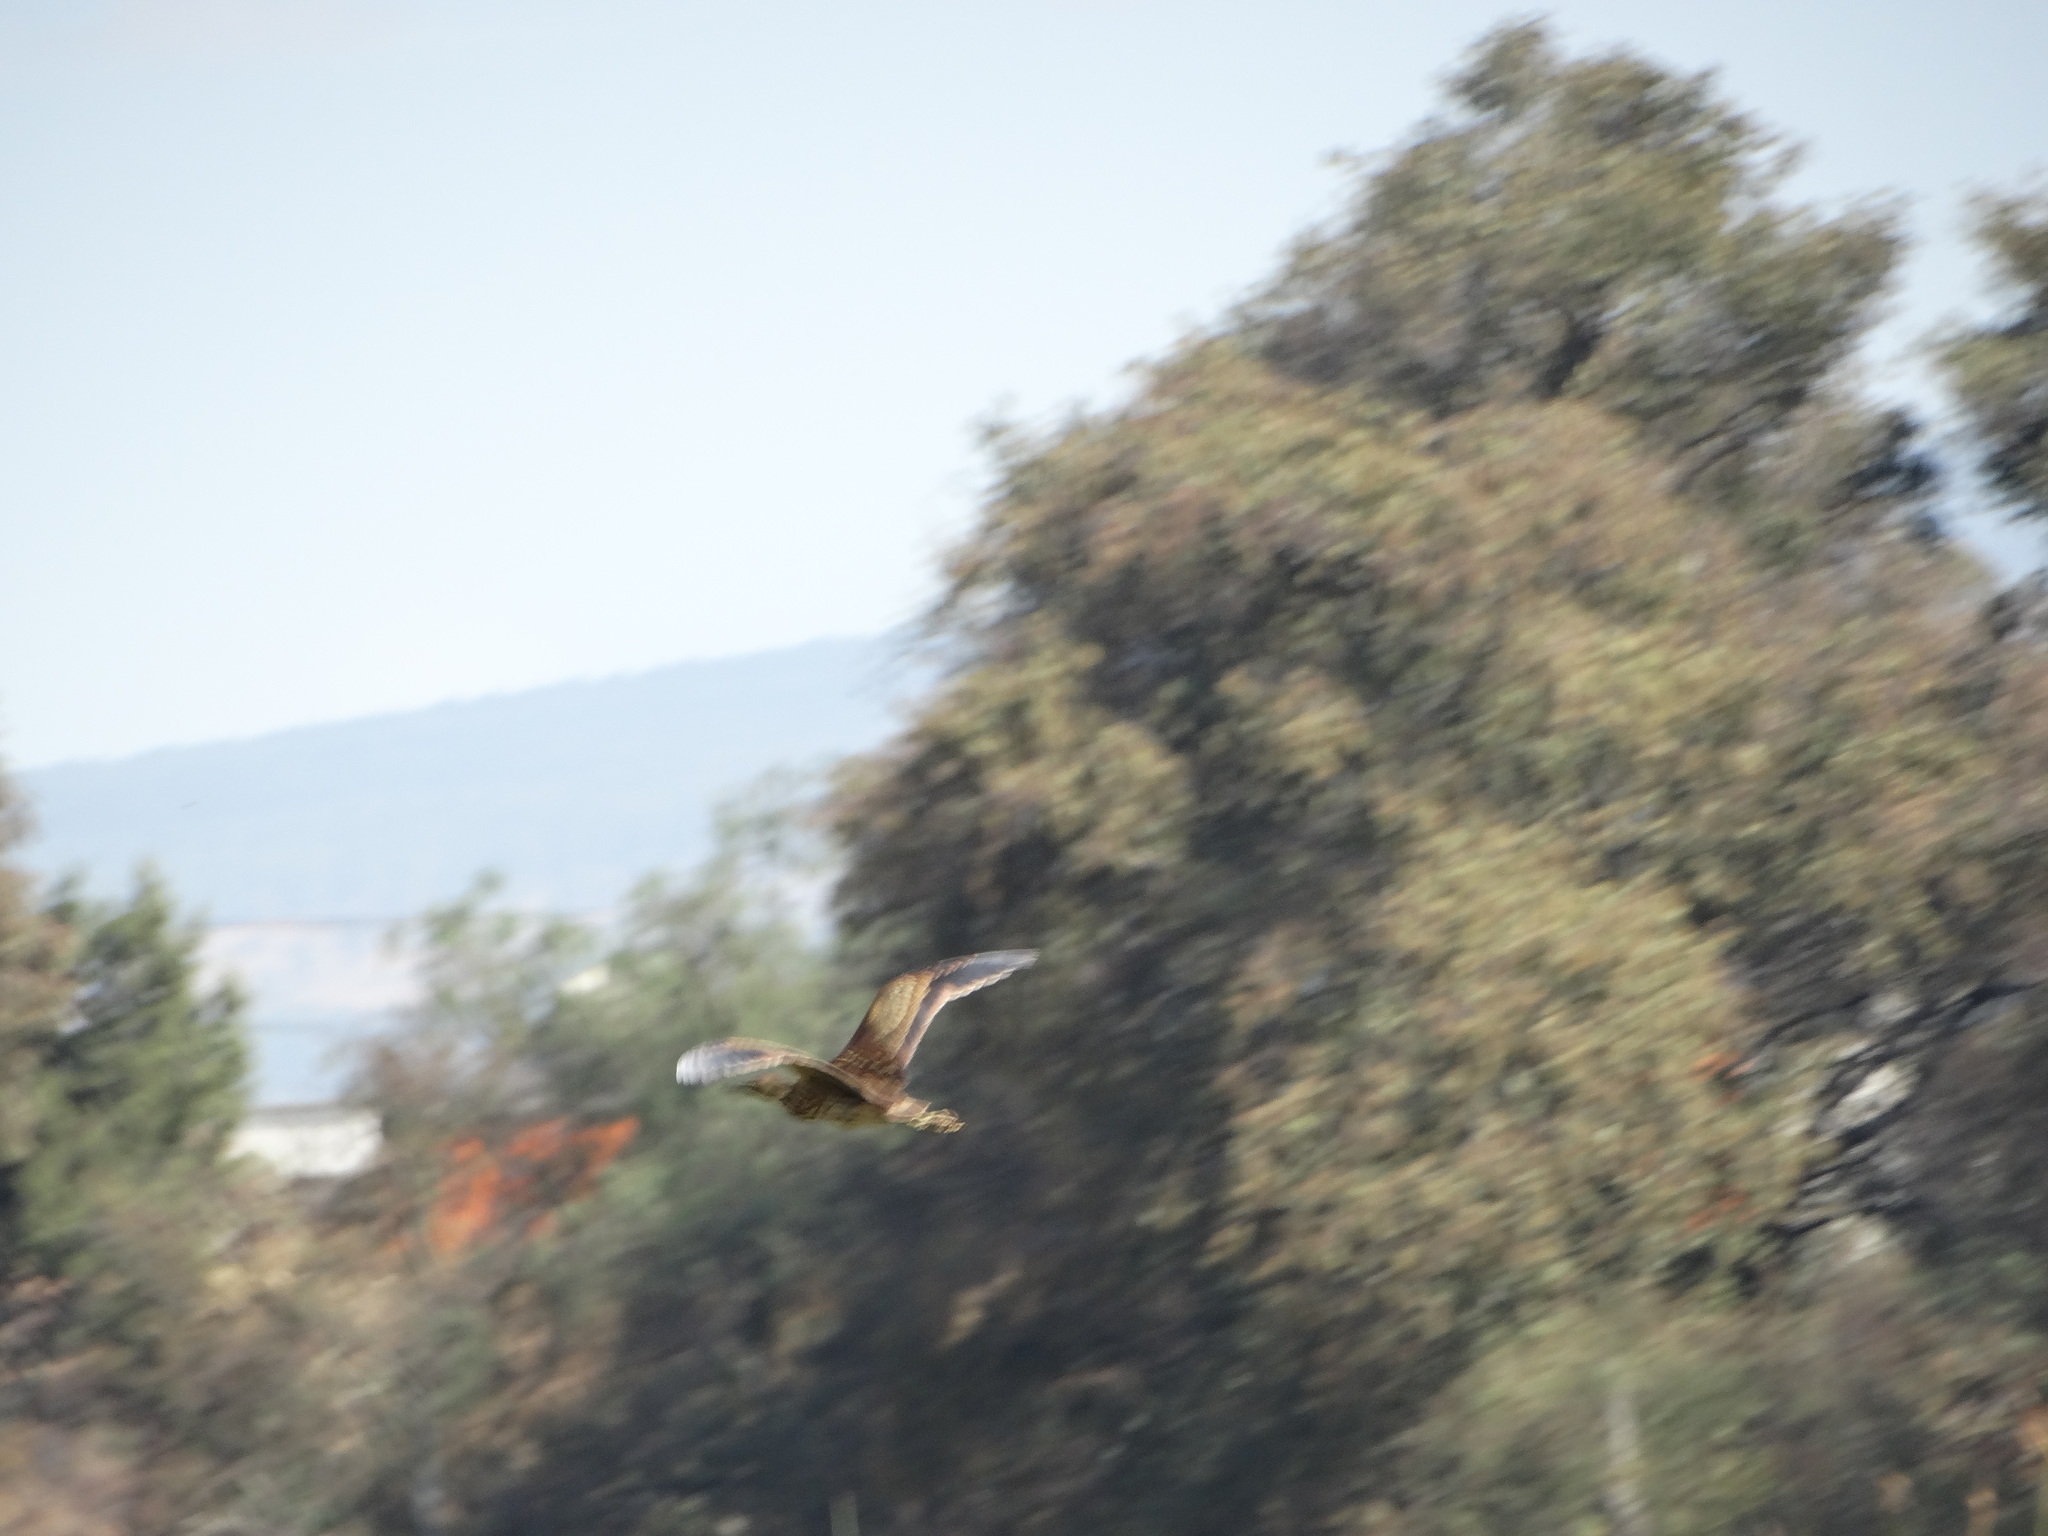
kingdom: Animalia
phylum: Chordata
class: Aves
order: Pelecaniformes
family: Ardeidae
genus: Botaurus
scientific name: Botaurus lentiginosus
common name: American bittern
